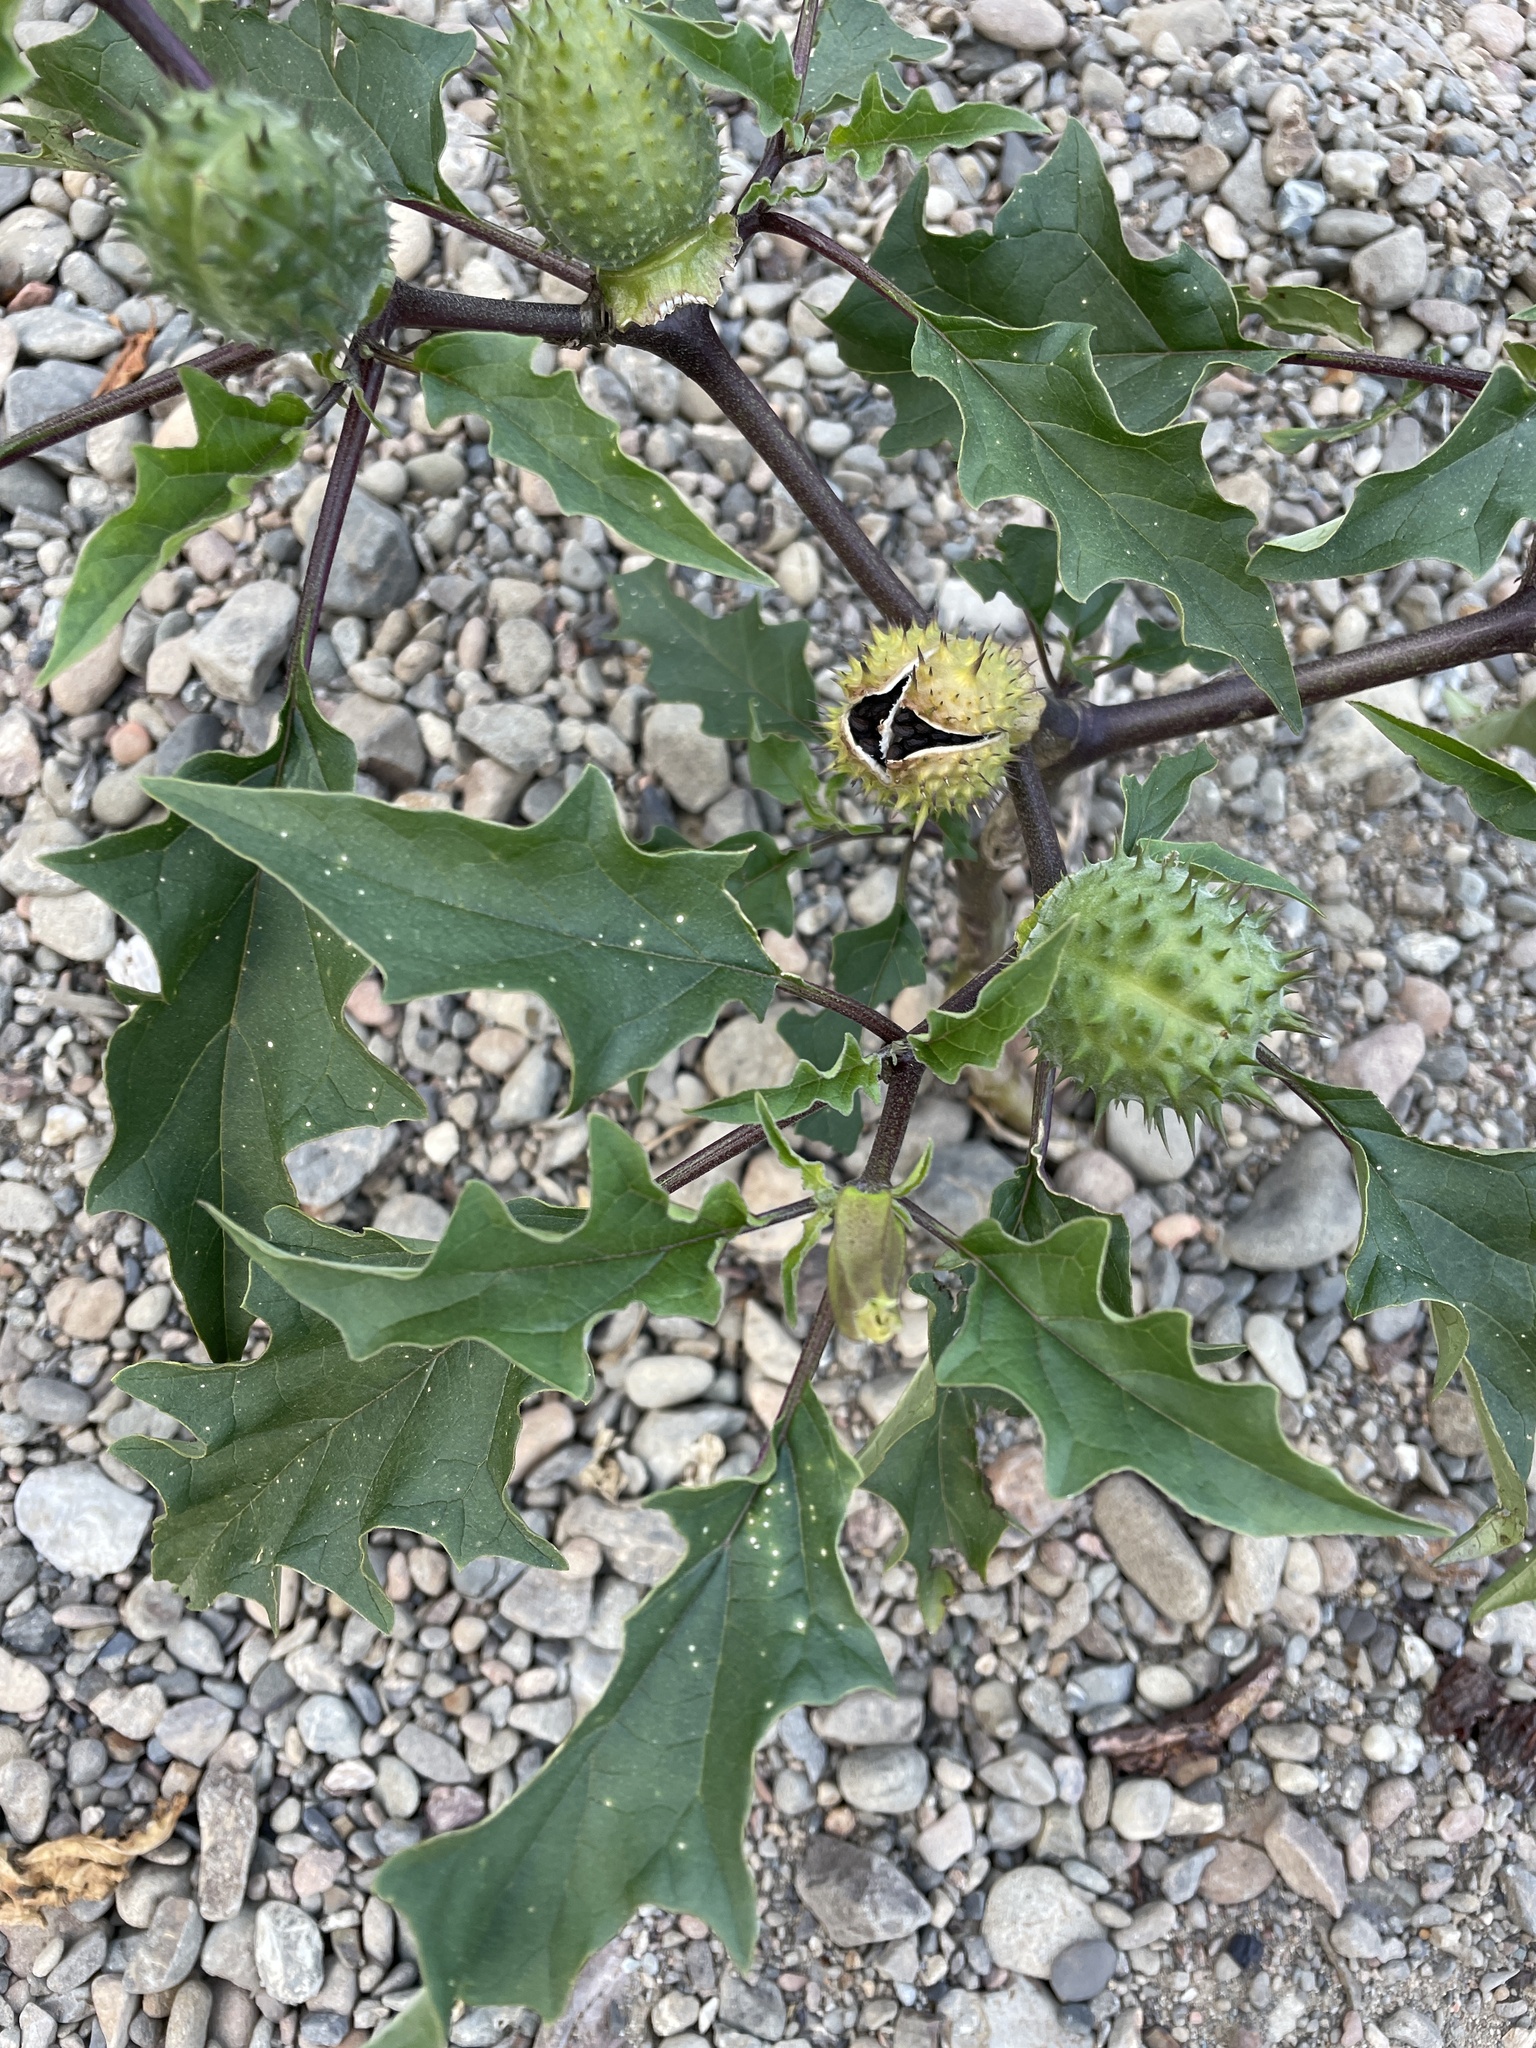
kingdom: Plantae
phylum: Tracheophyta
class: Magnoliopsida
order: Solanales
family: Solanaceae
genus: Datura
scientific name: Datura stramonium
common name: Thorn-apple
